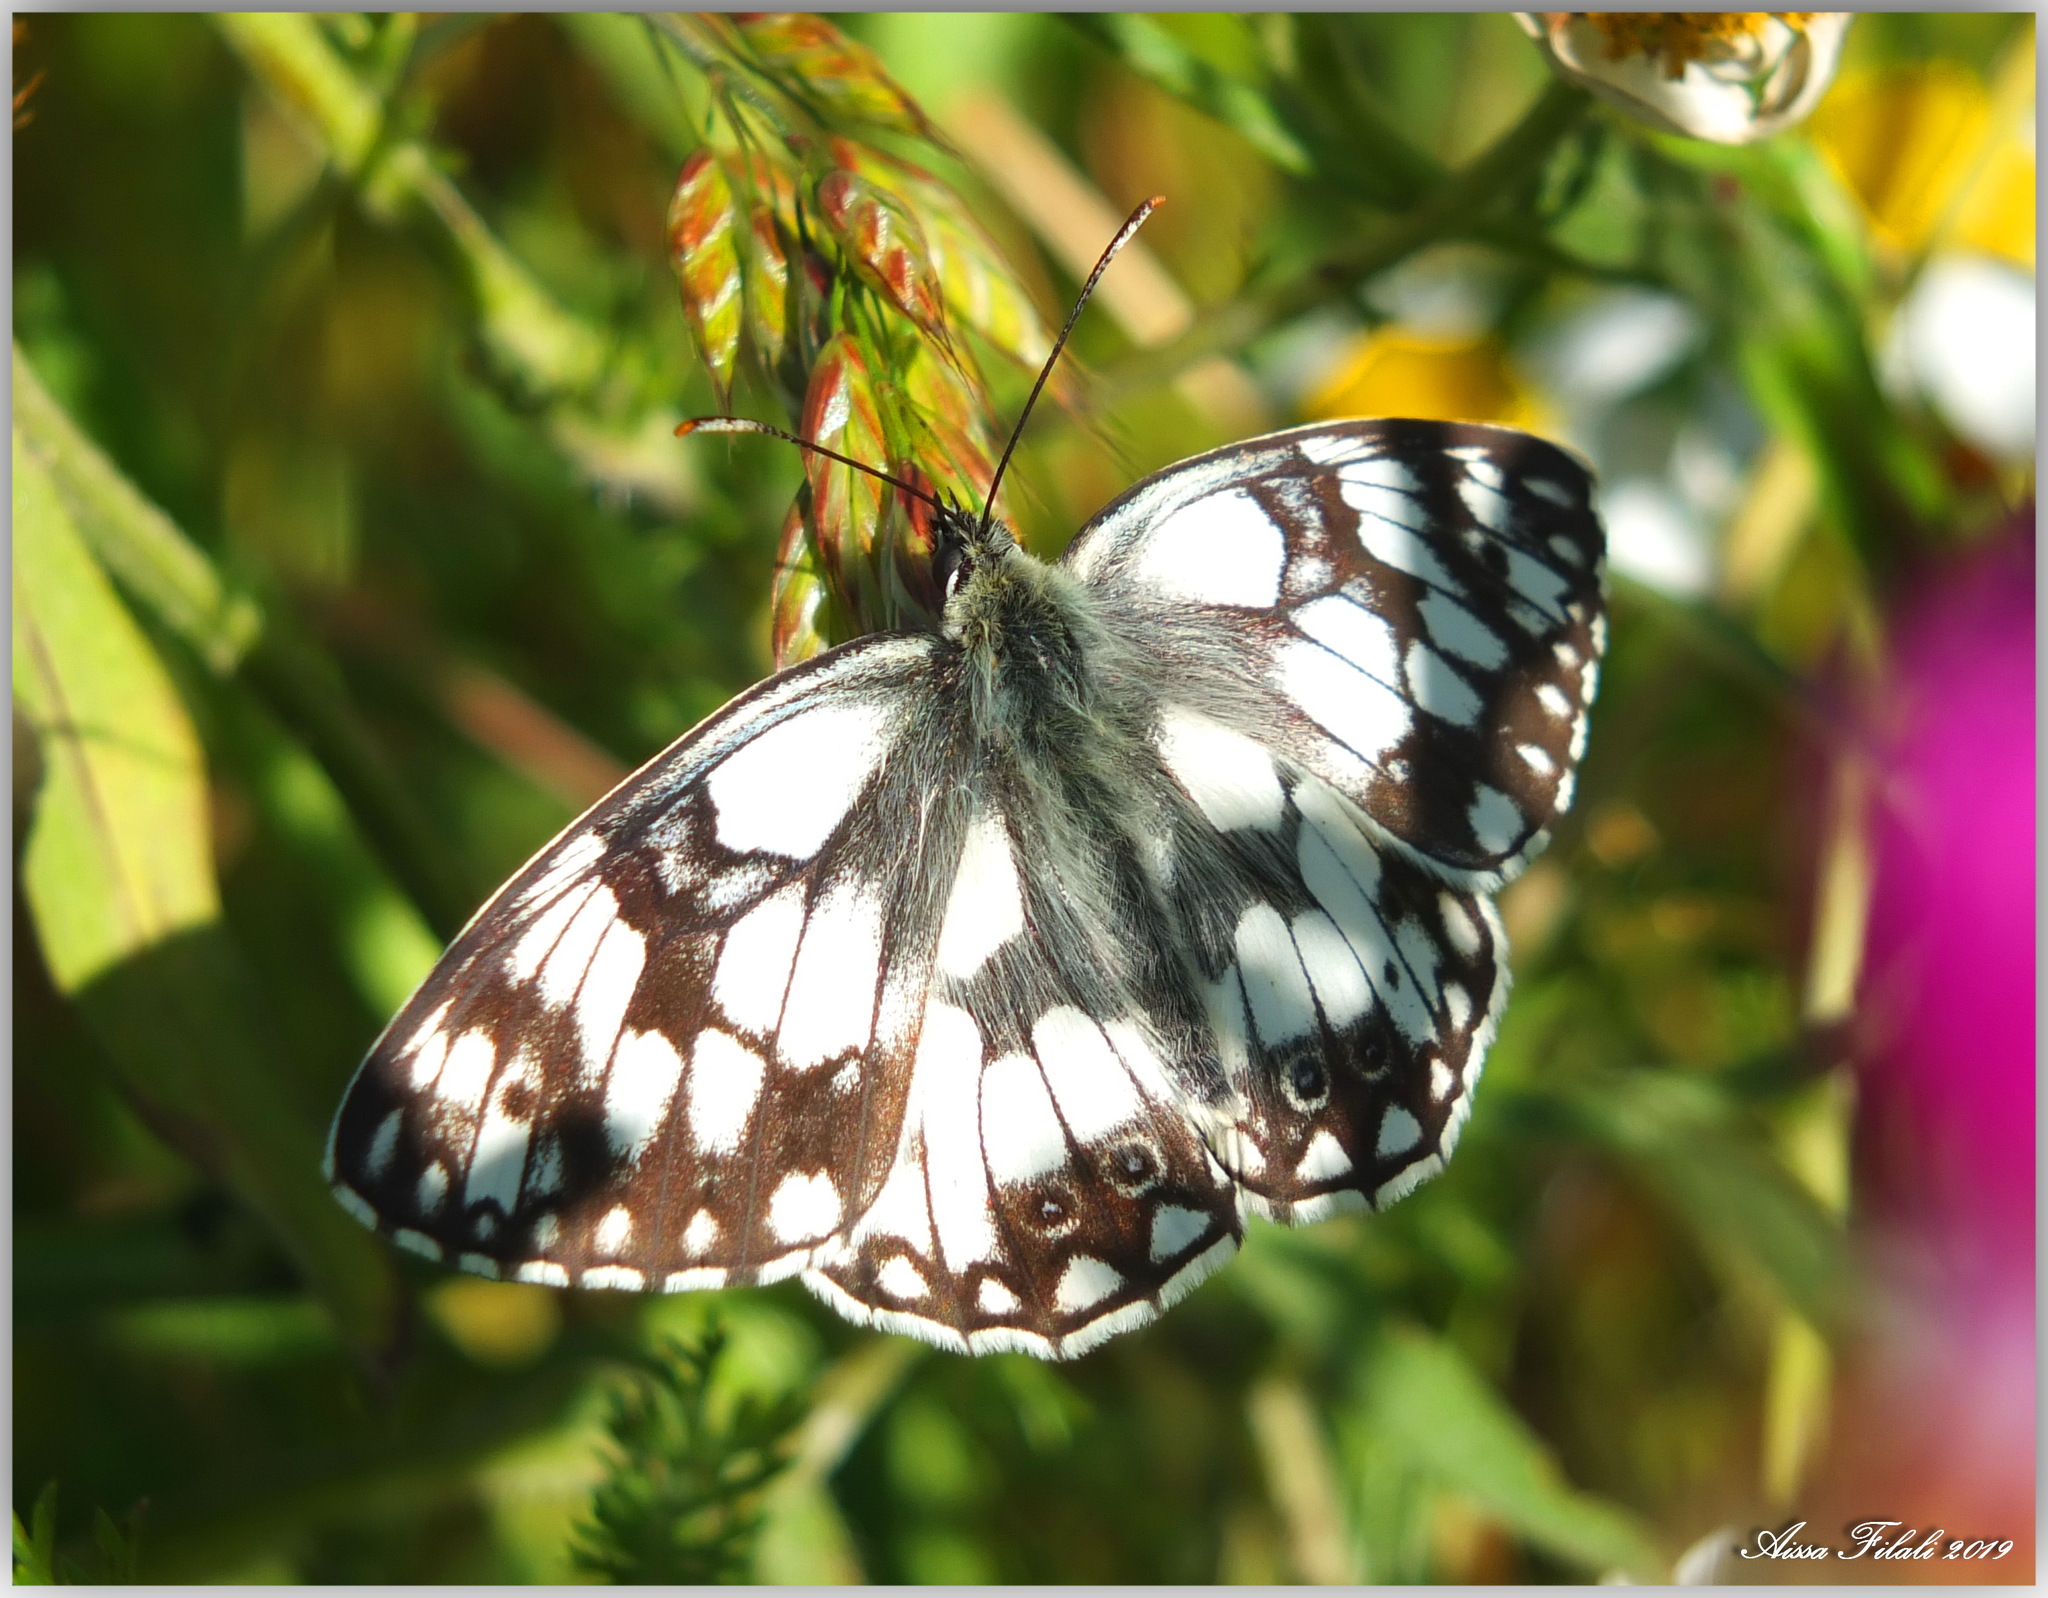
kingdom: Animalia
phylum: Arthropoda
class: Insecta
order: Lepidoptera
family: Nymphalidae
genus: Melanargia
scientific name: Melanargia lucasi
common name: Moroccan marbled white
